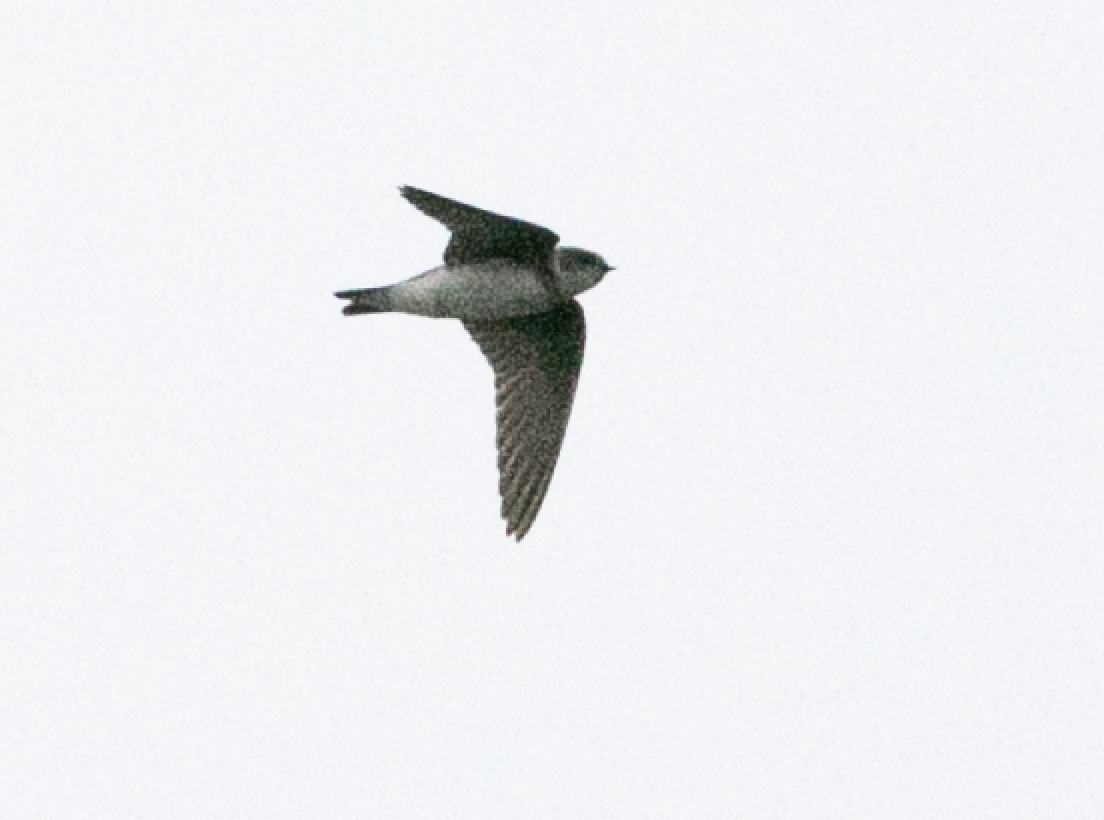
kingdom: Animalia
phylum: Chordata
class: Aves
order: Passeriformes
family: Hirundinidae
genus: Riparia
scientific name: Riparia riparia
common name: Sand martin
